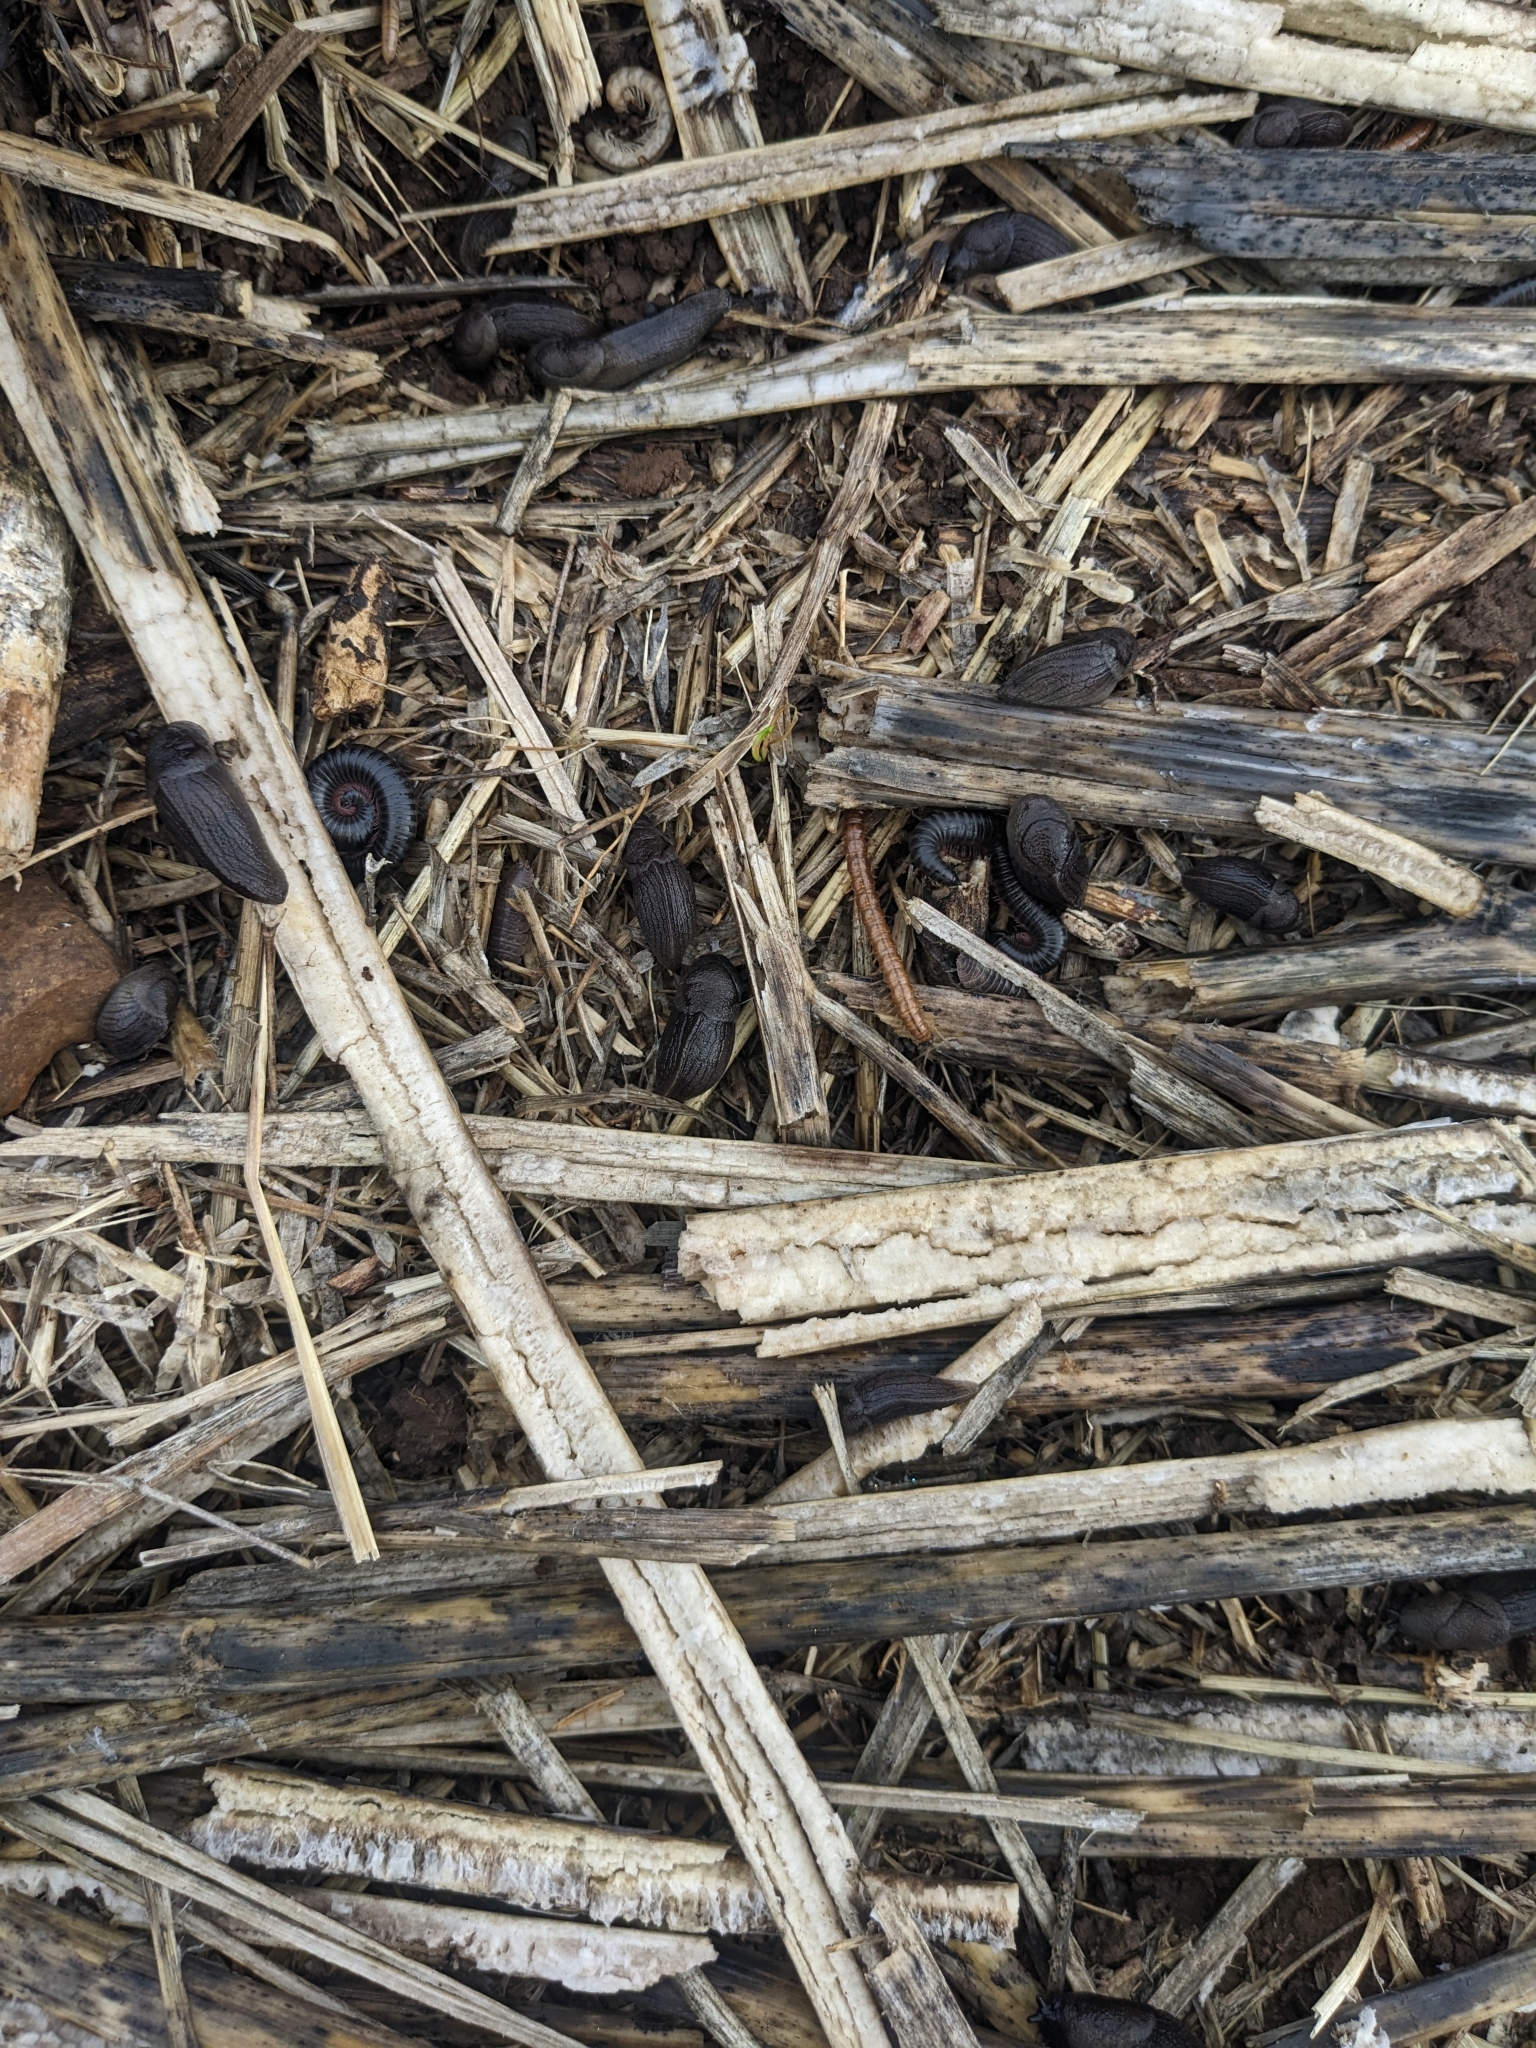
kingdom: Animalia
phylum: Mollusca
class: Gastropoda
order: Stylommatophora
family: Milacidae
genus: Milax
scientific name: Milax gagates
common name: Greenhouse slug
